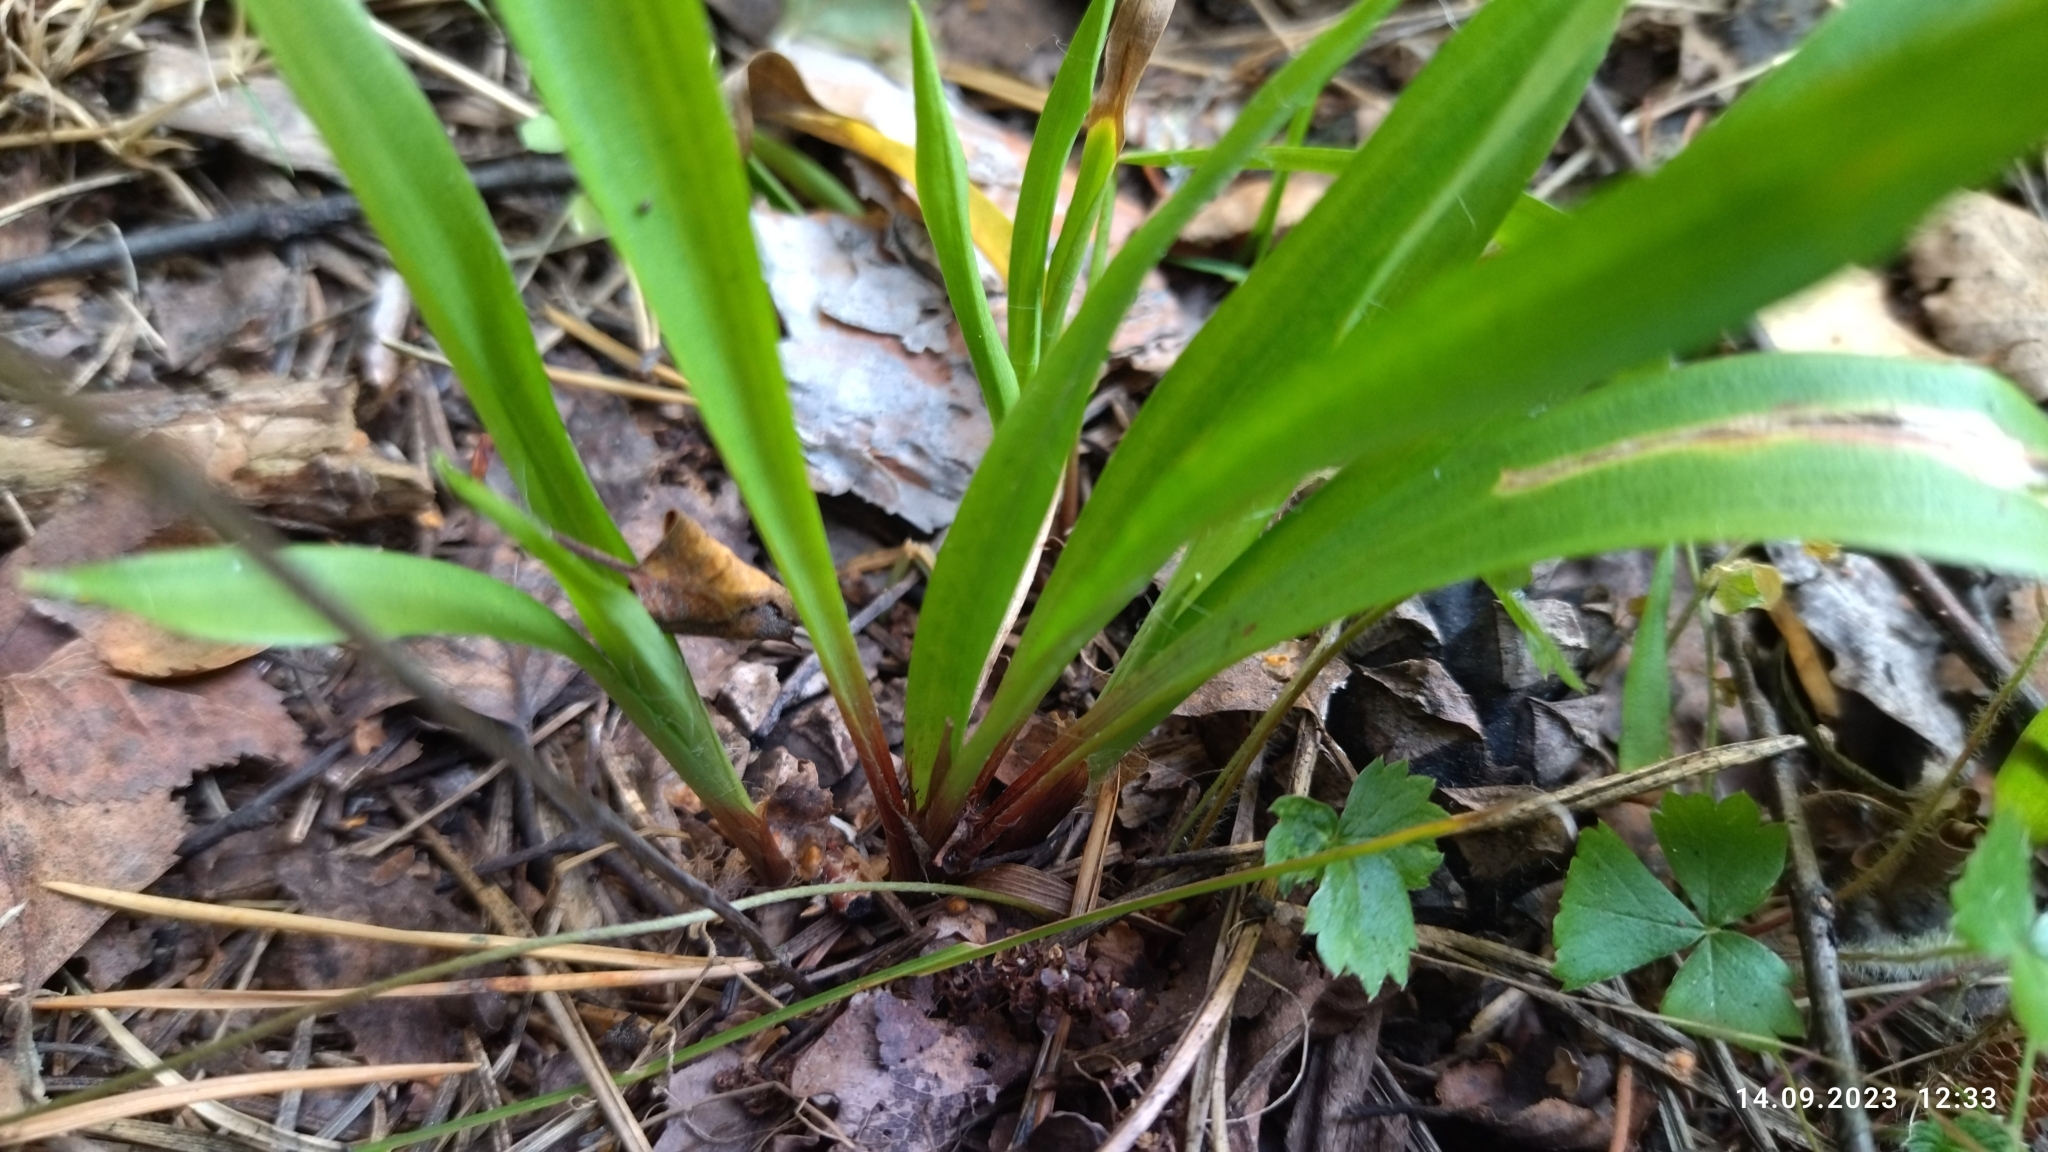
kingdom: Plantae
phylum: Tracheophyta
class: Liliopsida
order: Poales
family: Juncaceae
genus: Luzula
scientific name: Luzula pilosa
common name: Hairy wood-rush
